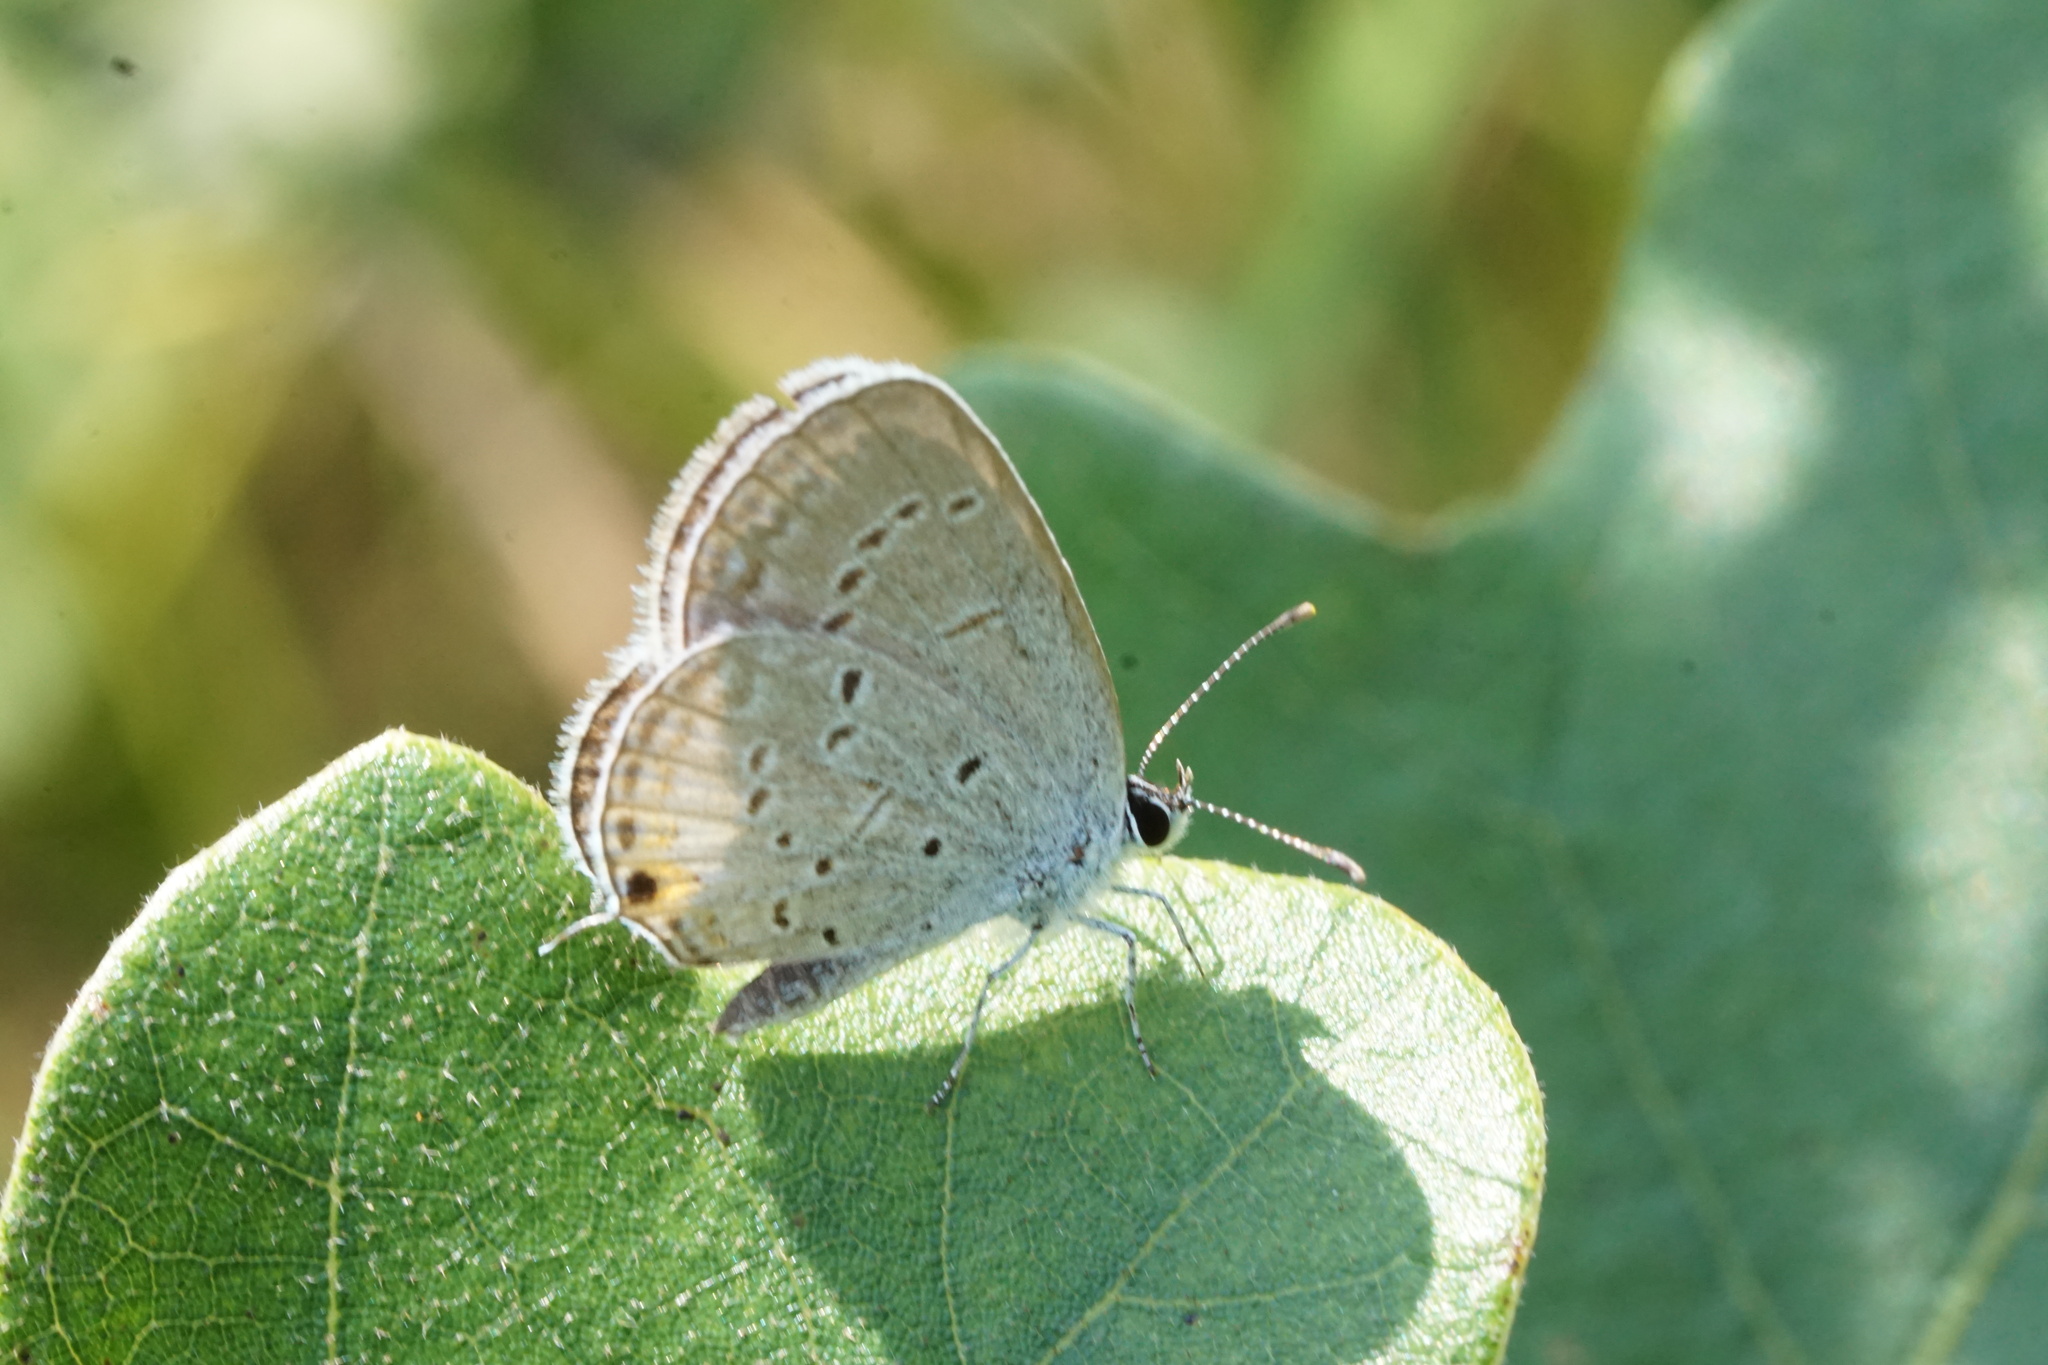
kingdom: Animalia
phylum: Arthropoda
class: Insecta
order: Lepidoptera
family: Lycaenidae
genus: Elkalyce
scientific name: Elkalyce comyntas
